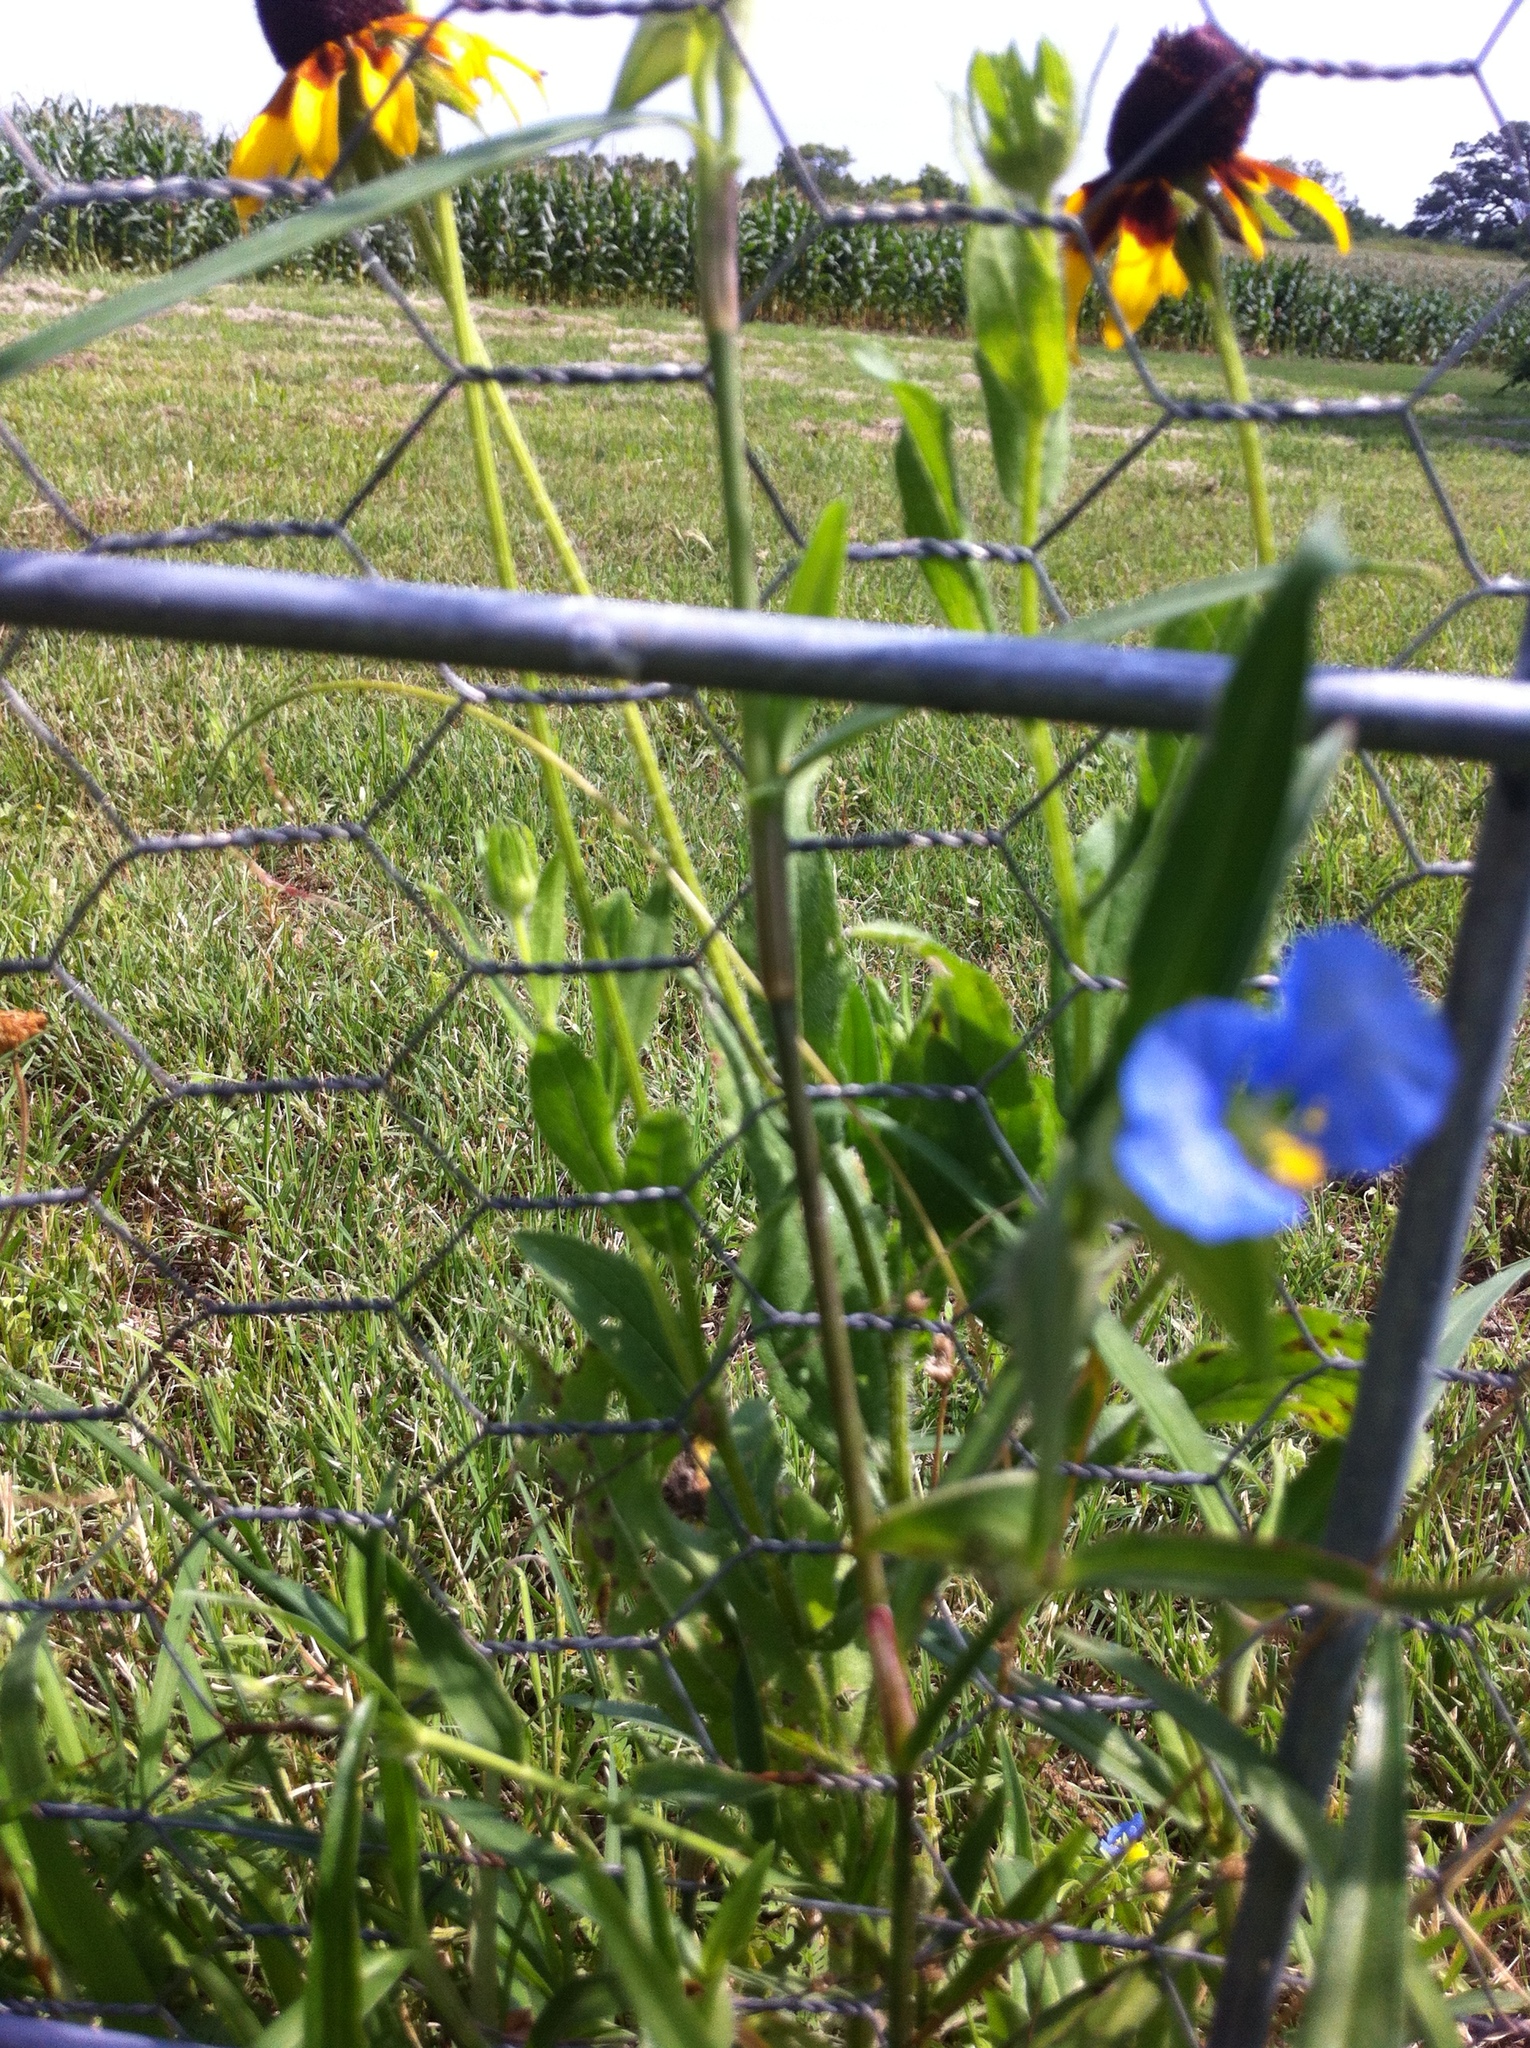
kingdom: Plantae
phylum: Tracheophyta
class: Liliopsida
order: Commelinales
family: Commelinaceae
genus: Commelina
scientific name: Commelina erecta
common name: Blousel blommetjie
